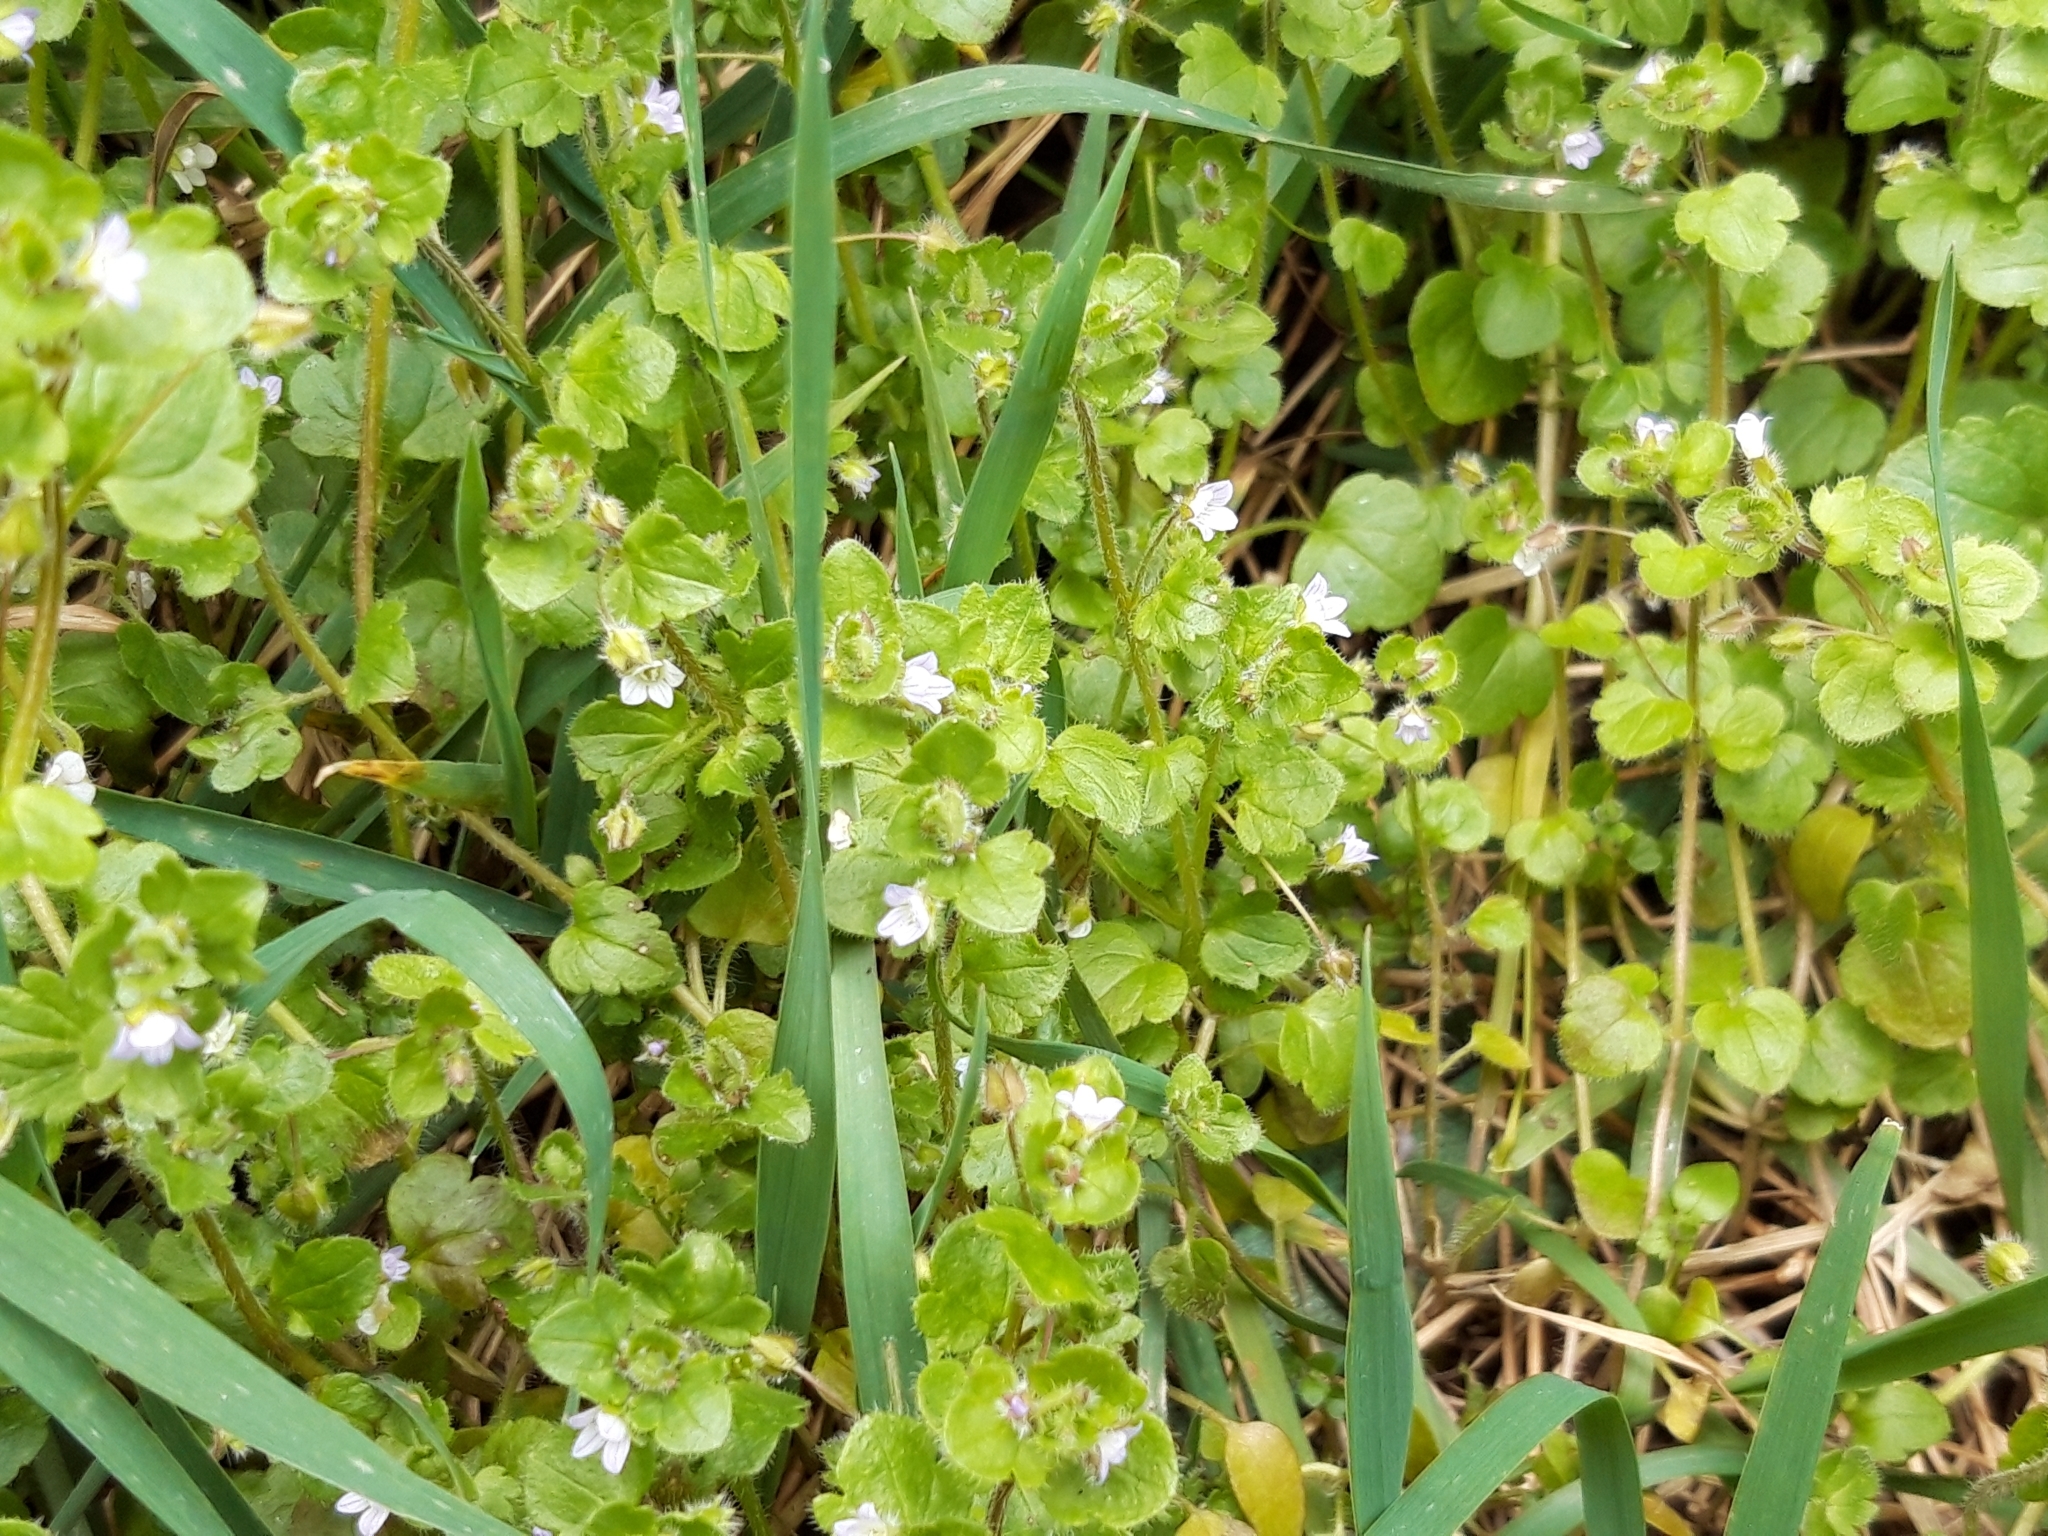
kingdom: Plantae
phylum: Tracheophyta
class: Magnoliopsida
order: Lamiales
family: Plantaginaceae
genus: Veronica
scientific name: Veronica hederifolia
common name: Ivy-leaved speedwell
